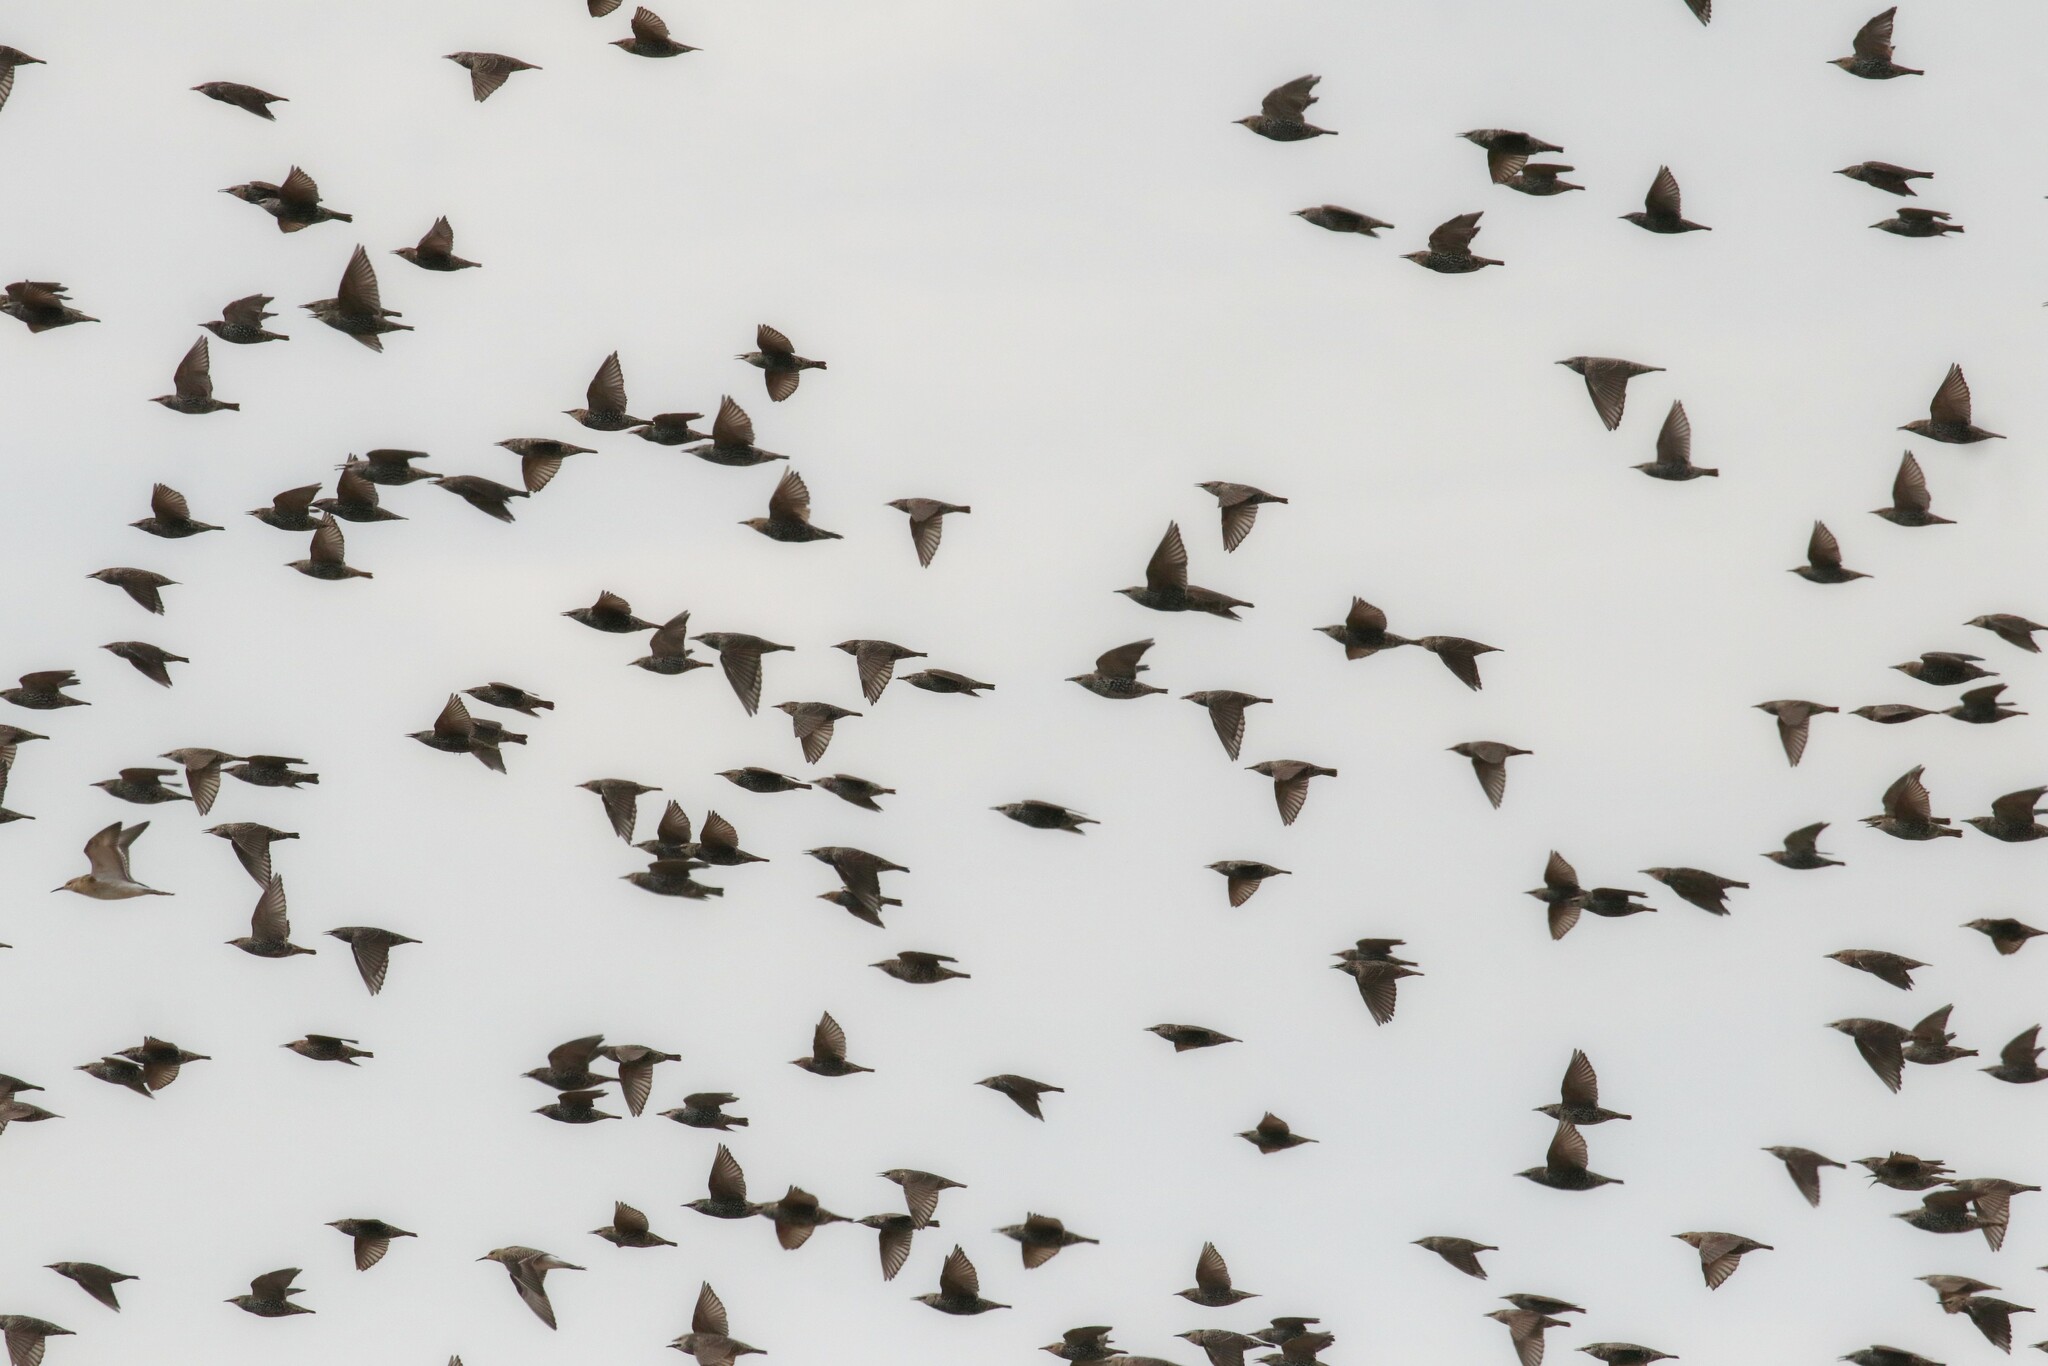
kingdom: Animalia
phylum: Chordata
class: Aves
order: Passeriformes
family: Sturnidae
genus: Sturnus
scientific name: Sturnus vulgaris
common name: Common starling
